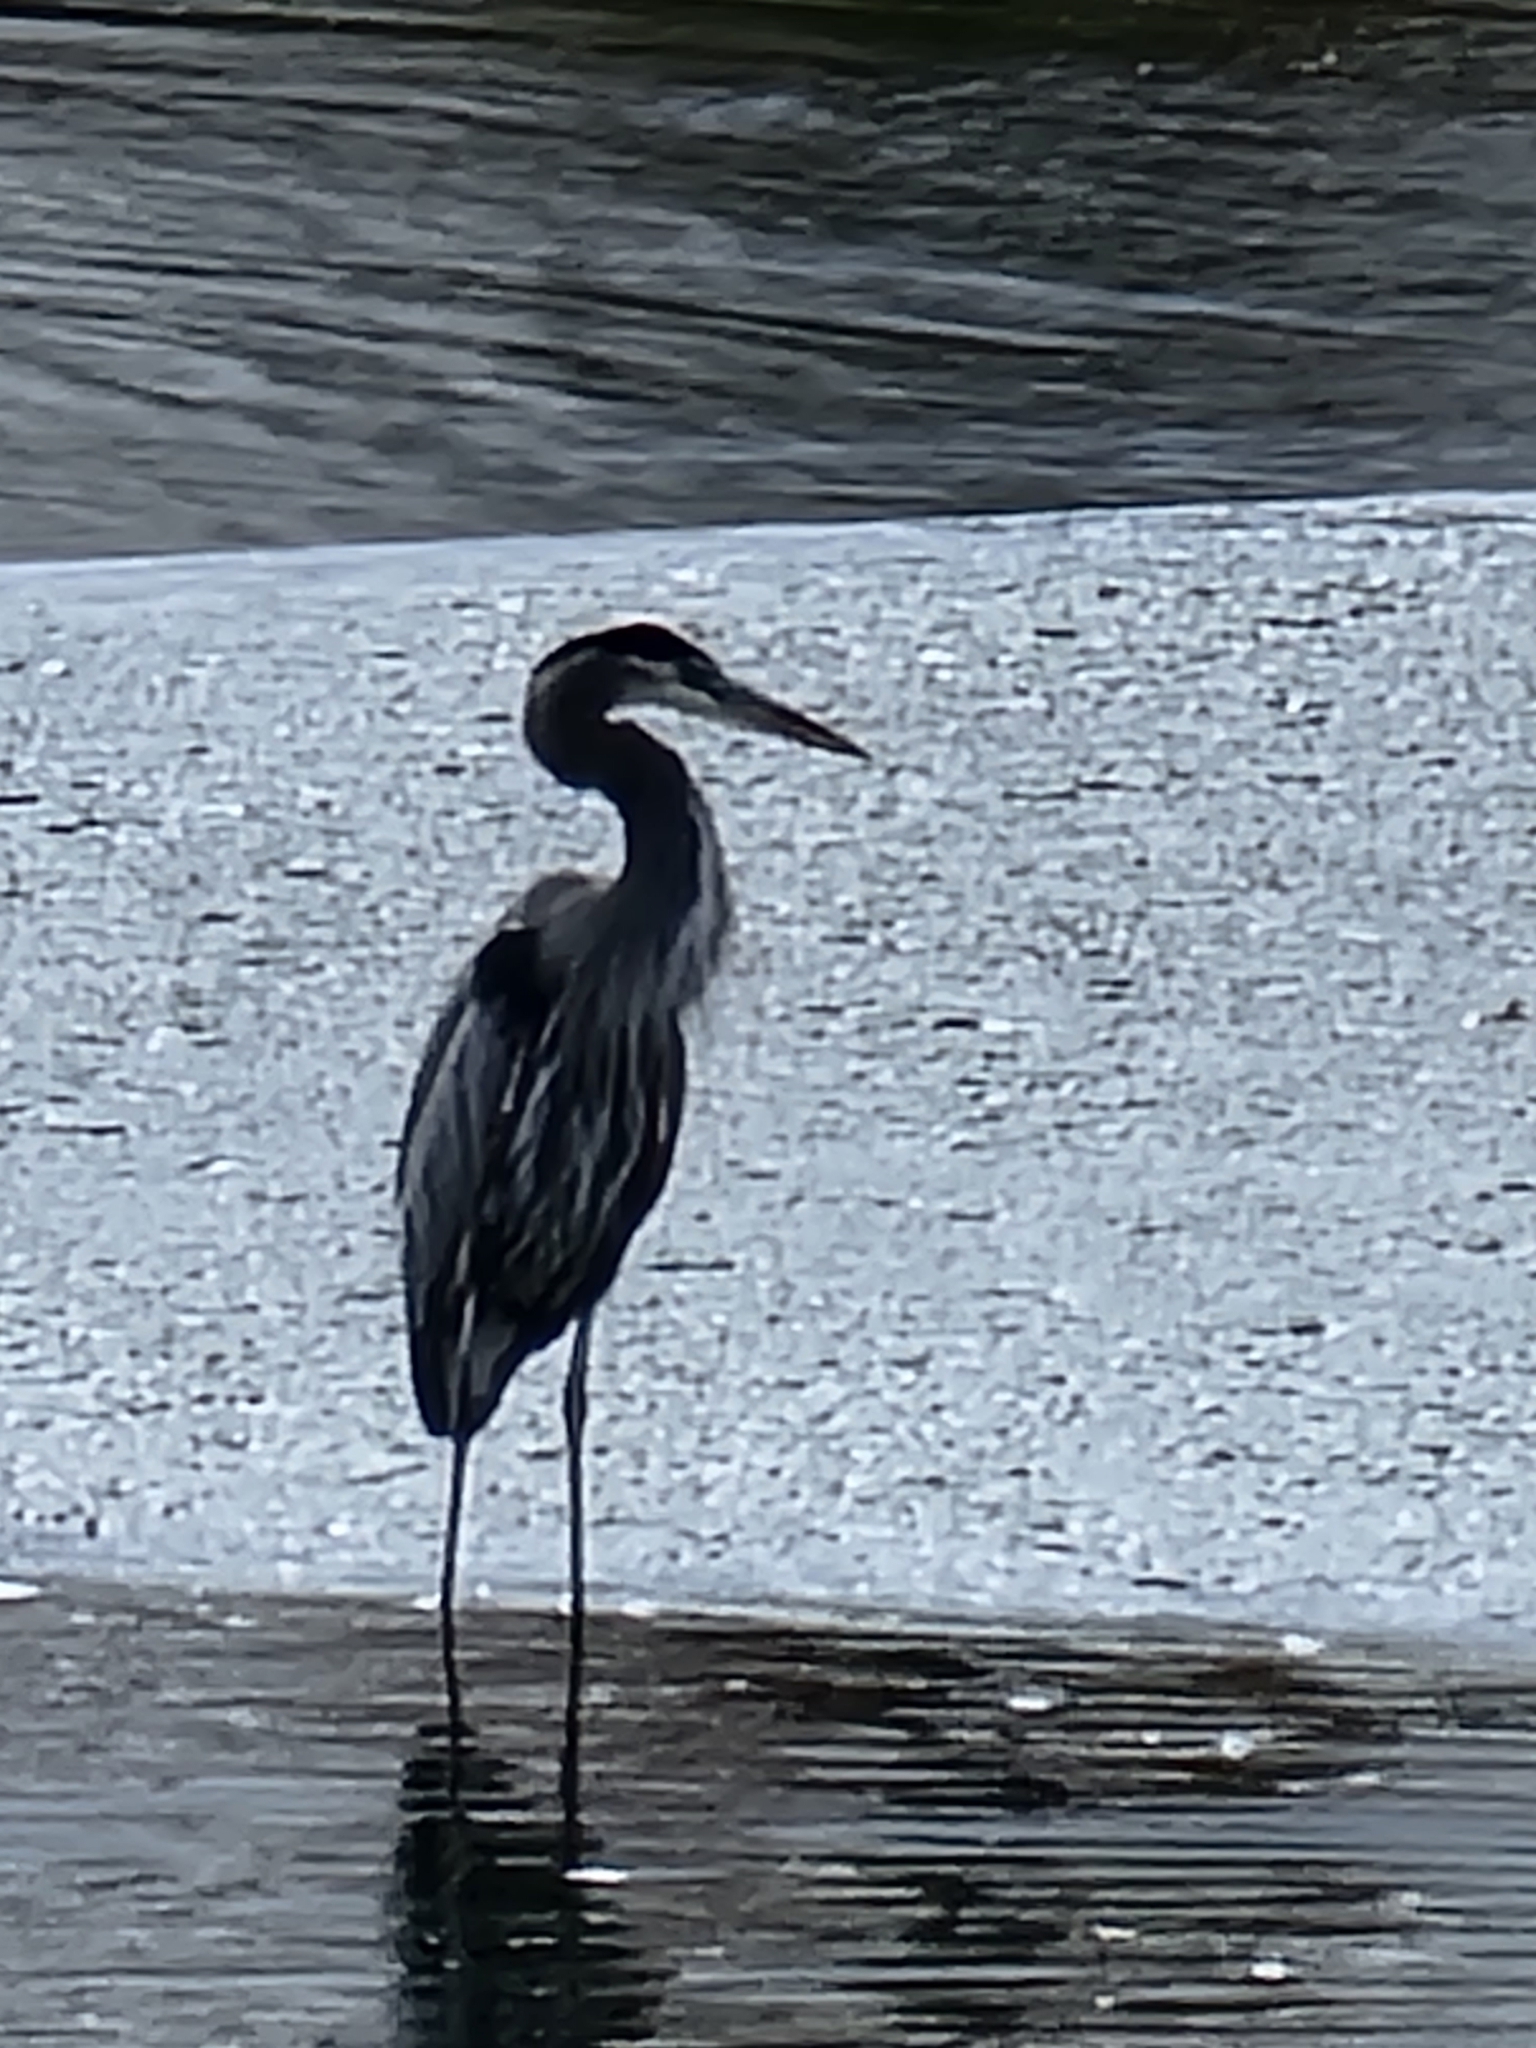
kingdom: Animalia
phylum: Chordata
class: Aves
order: Pelecaniformes
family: Ardeidae
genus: Ardea
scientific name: Ardea herodias
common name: Great blue heron
